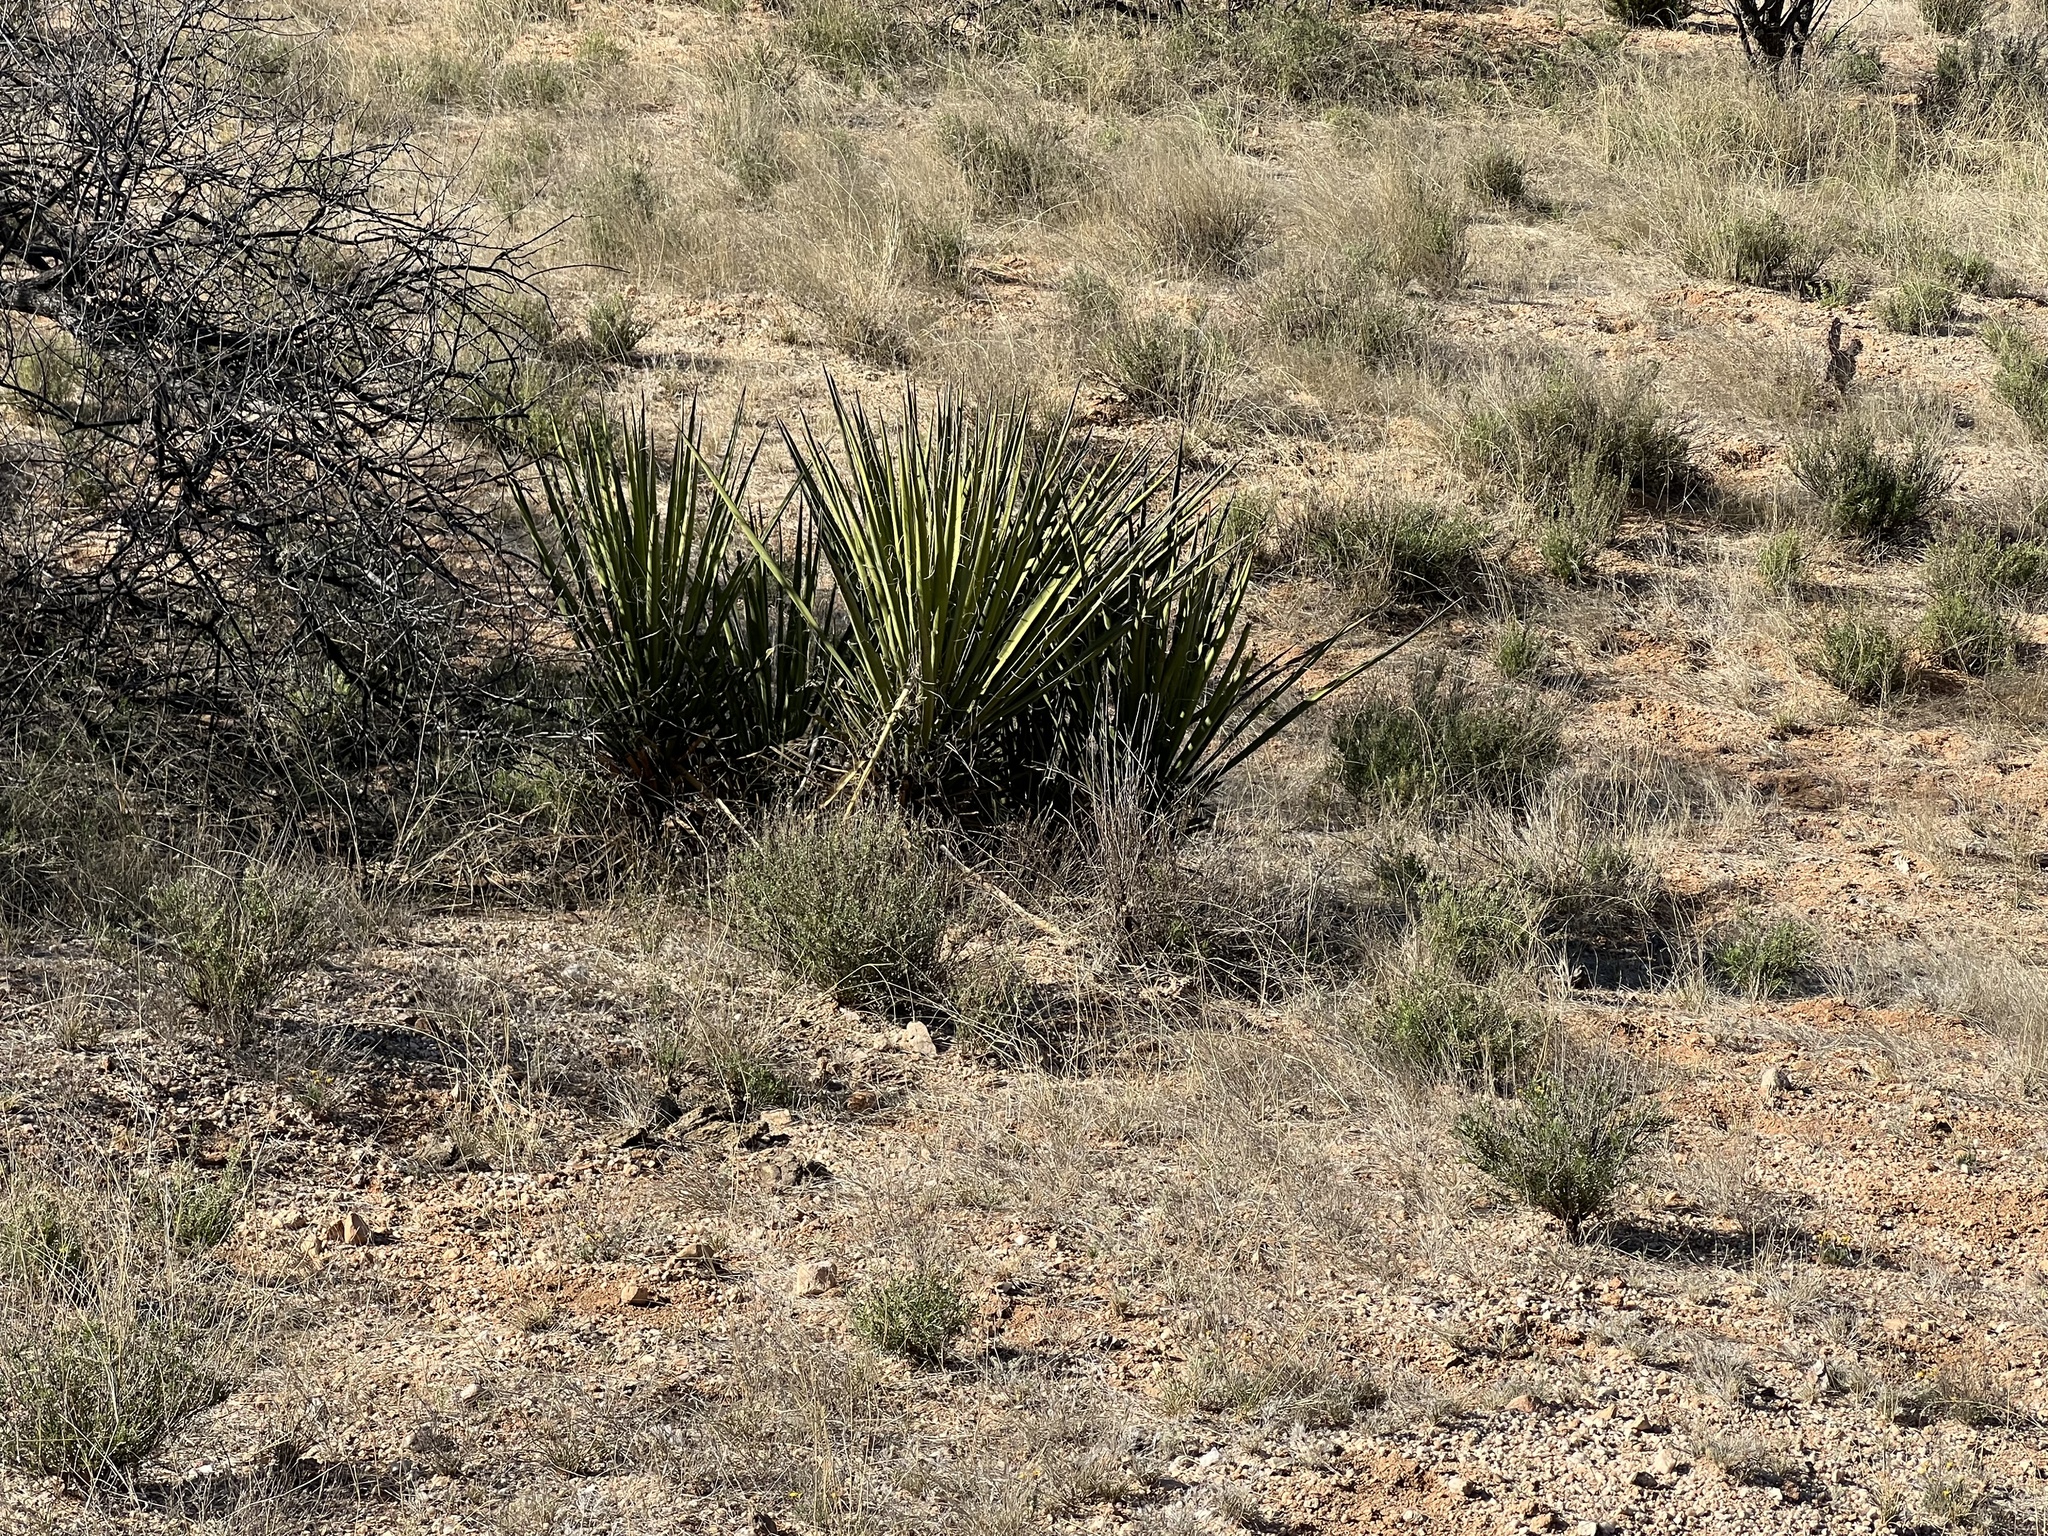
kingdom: Plantae
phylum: Tracheophyta
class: Liliopsida
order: Asparagales
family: Asparagaceae
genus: Yucca
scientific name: Yucca baccata
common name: Banana yucca
